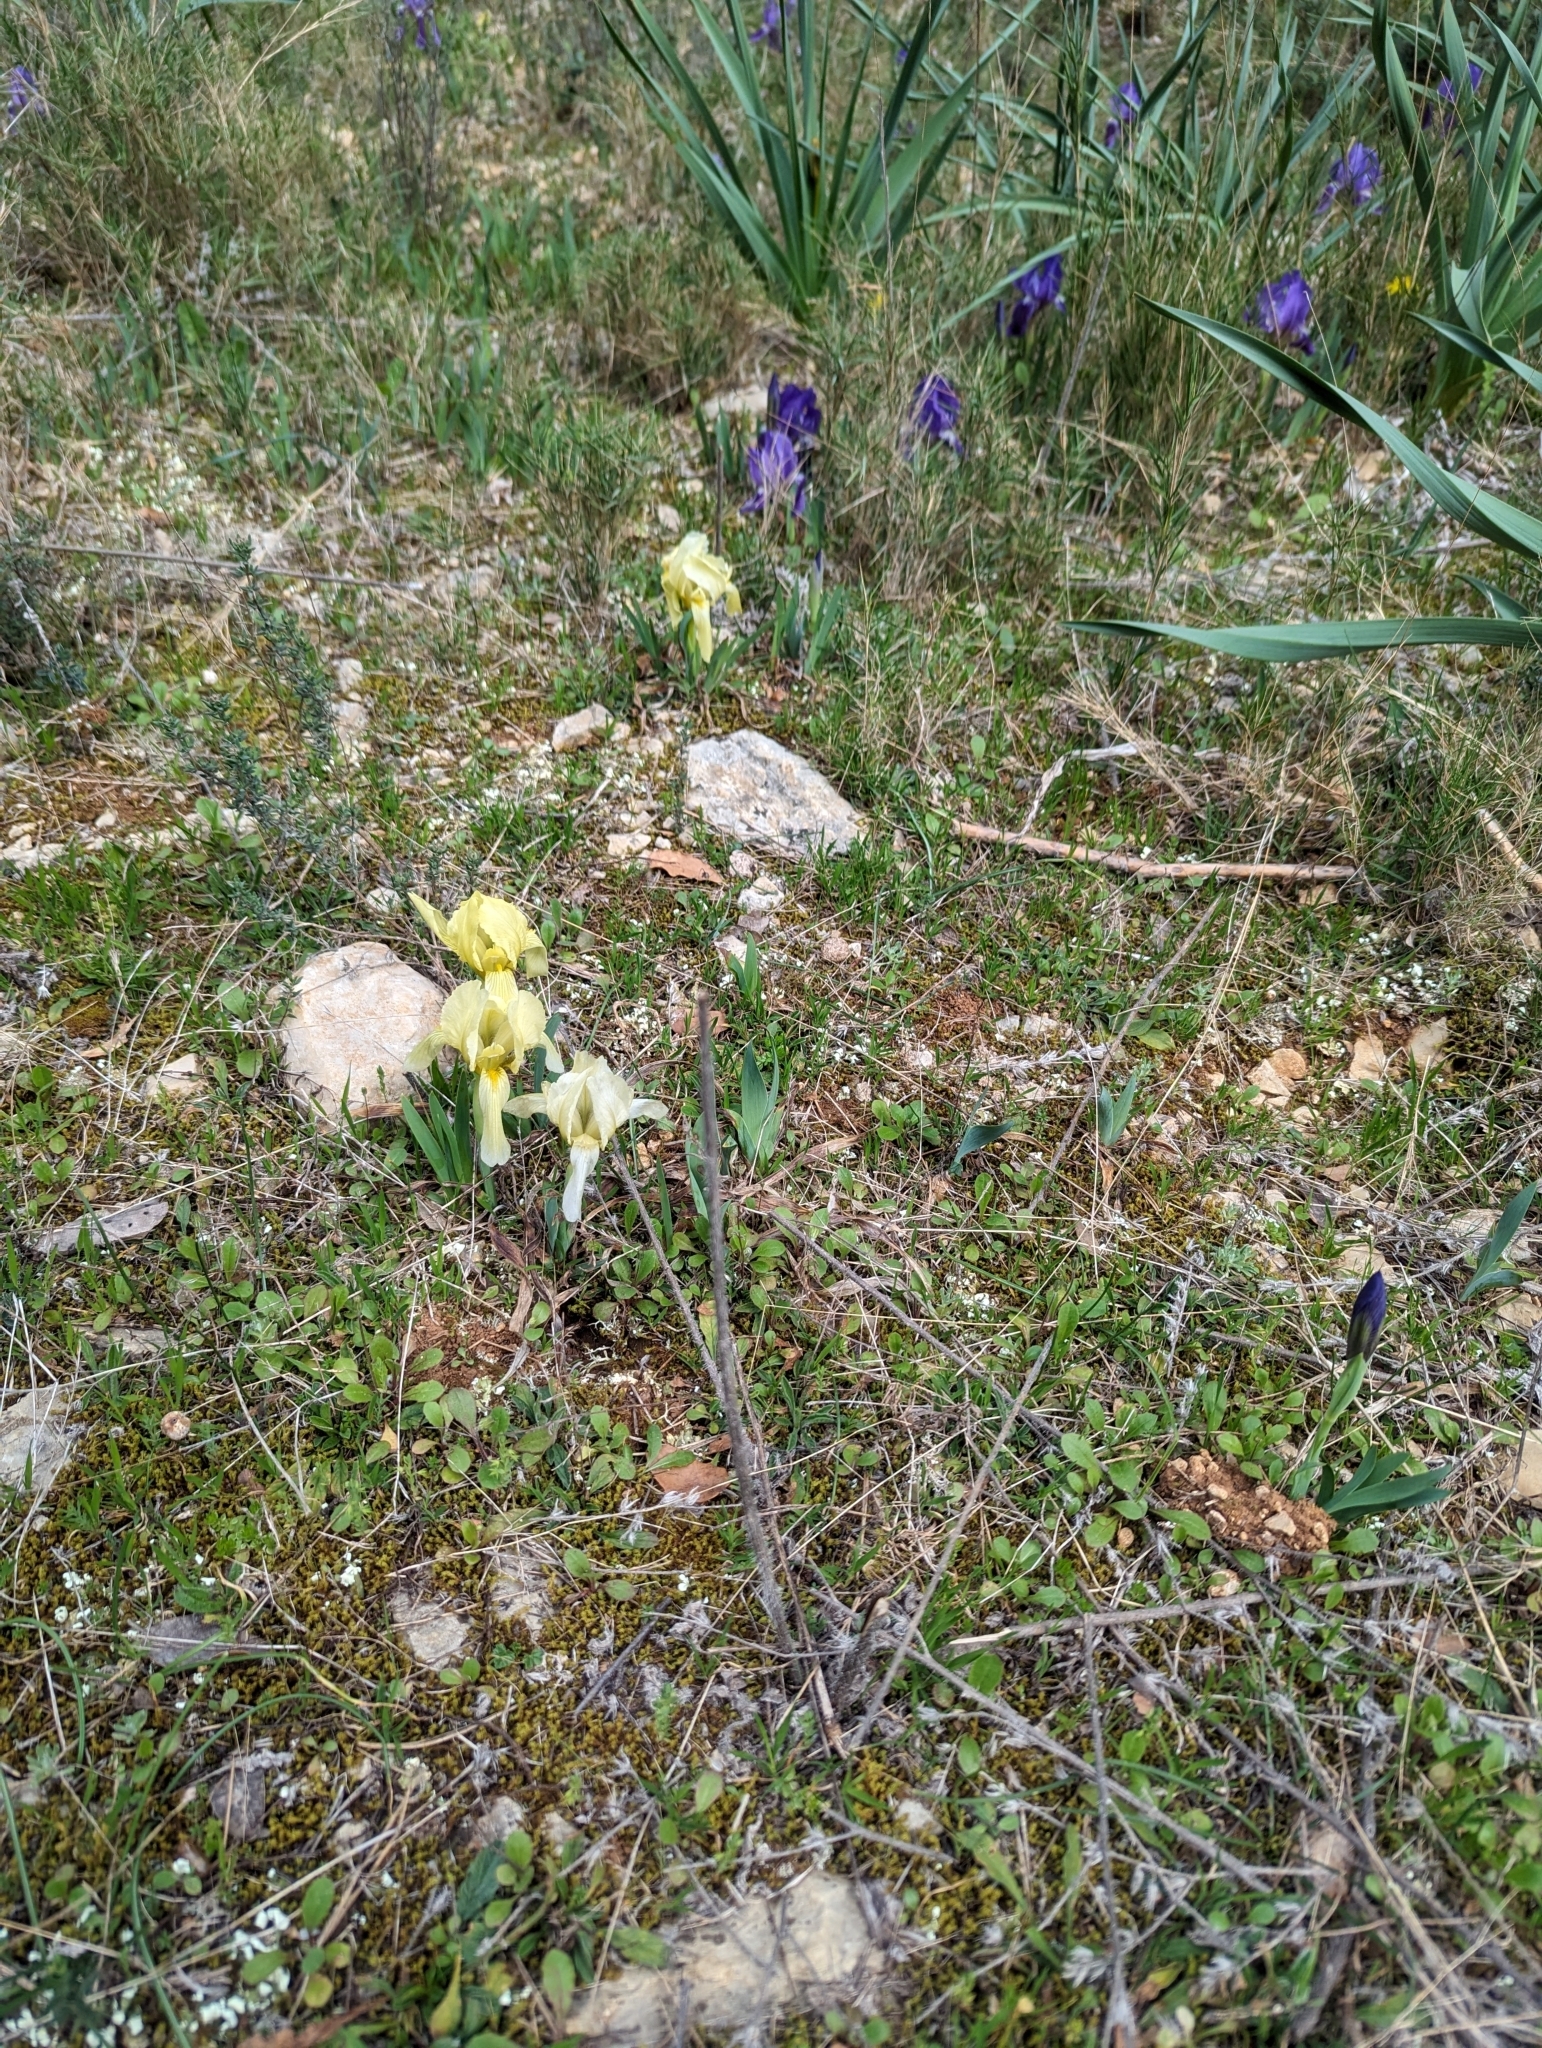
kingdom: Plantae
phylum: Tracheophyta
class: Liliopsida
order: Asparagales
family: Iridaceae
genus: Iris
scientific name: Iris lutescens
